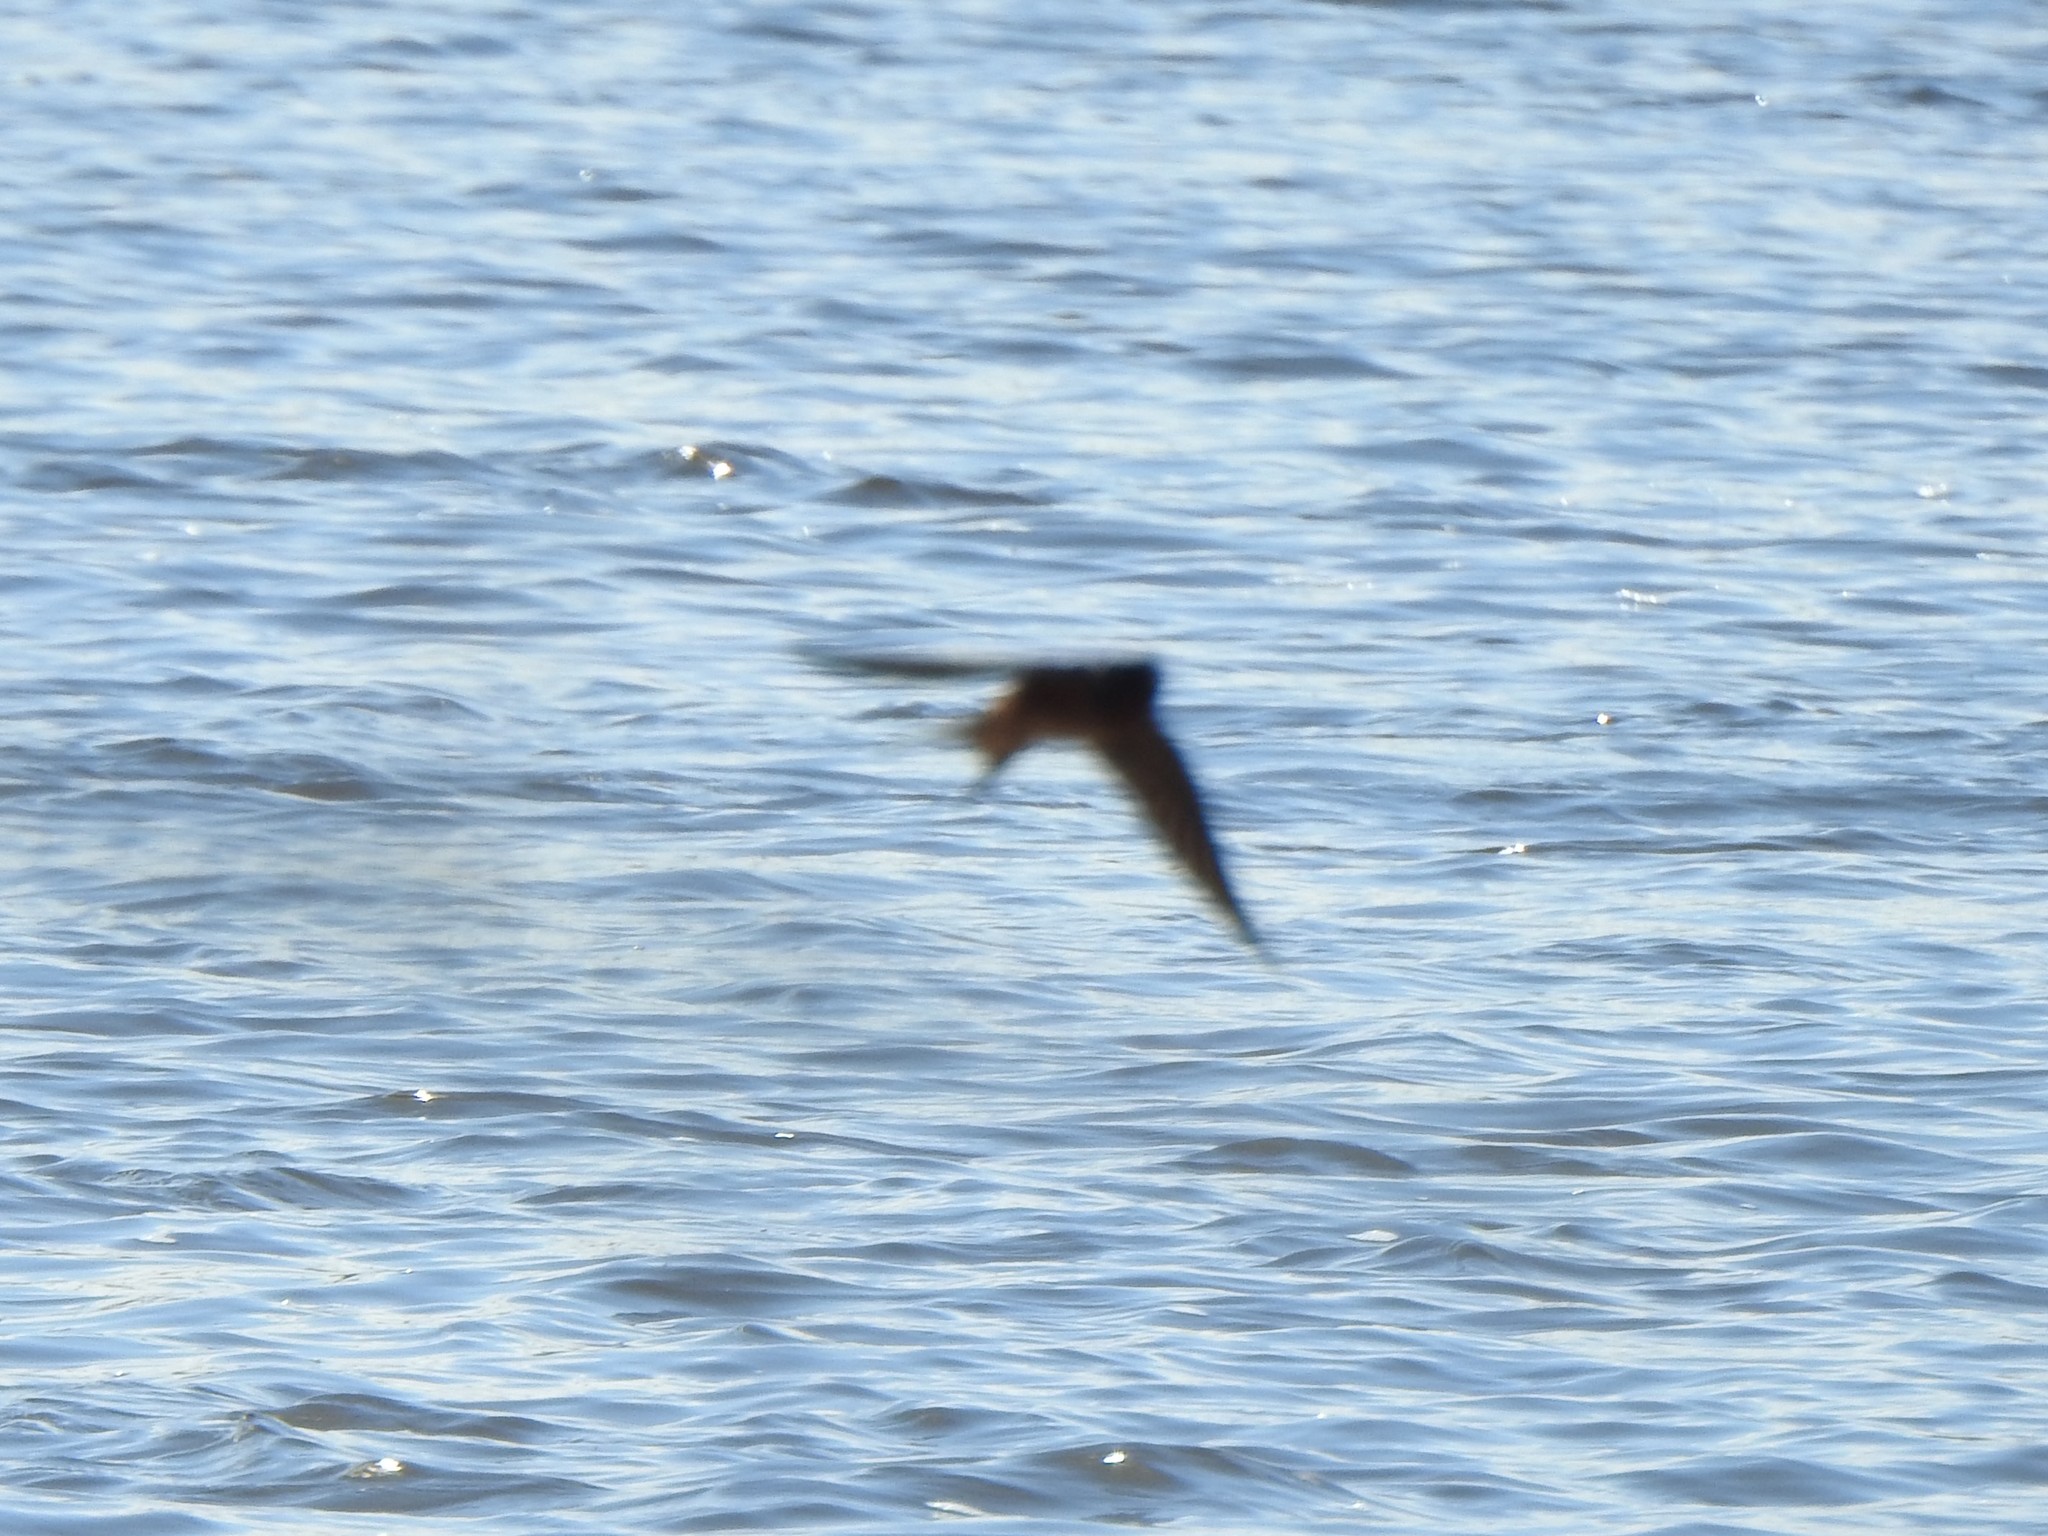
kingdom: Animalia
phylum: Chordata
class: Aves
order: Passeriformes
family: Hirundinidae
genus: Hirundo
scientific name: Hirundo rustica
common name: Barn swallow
